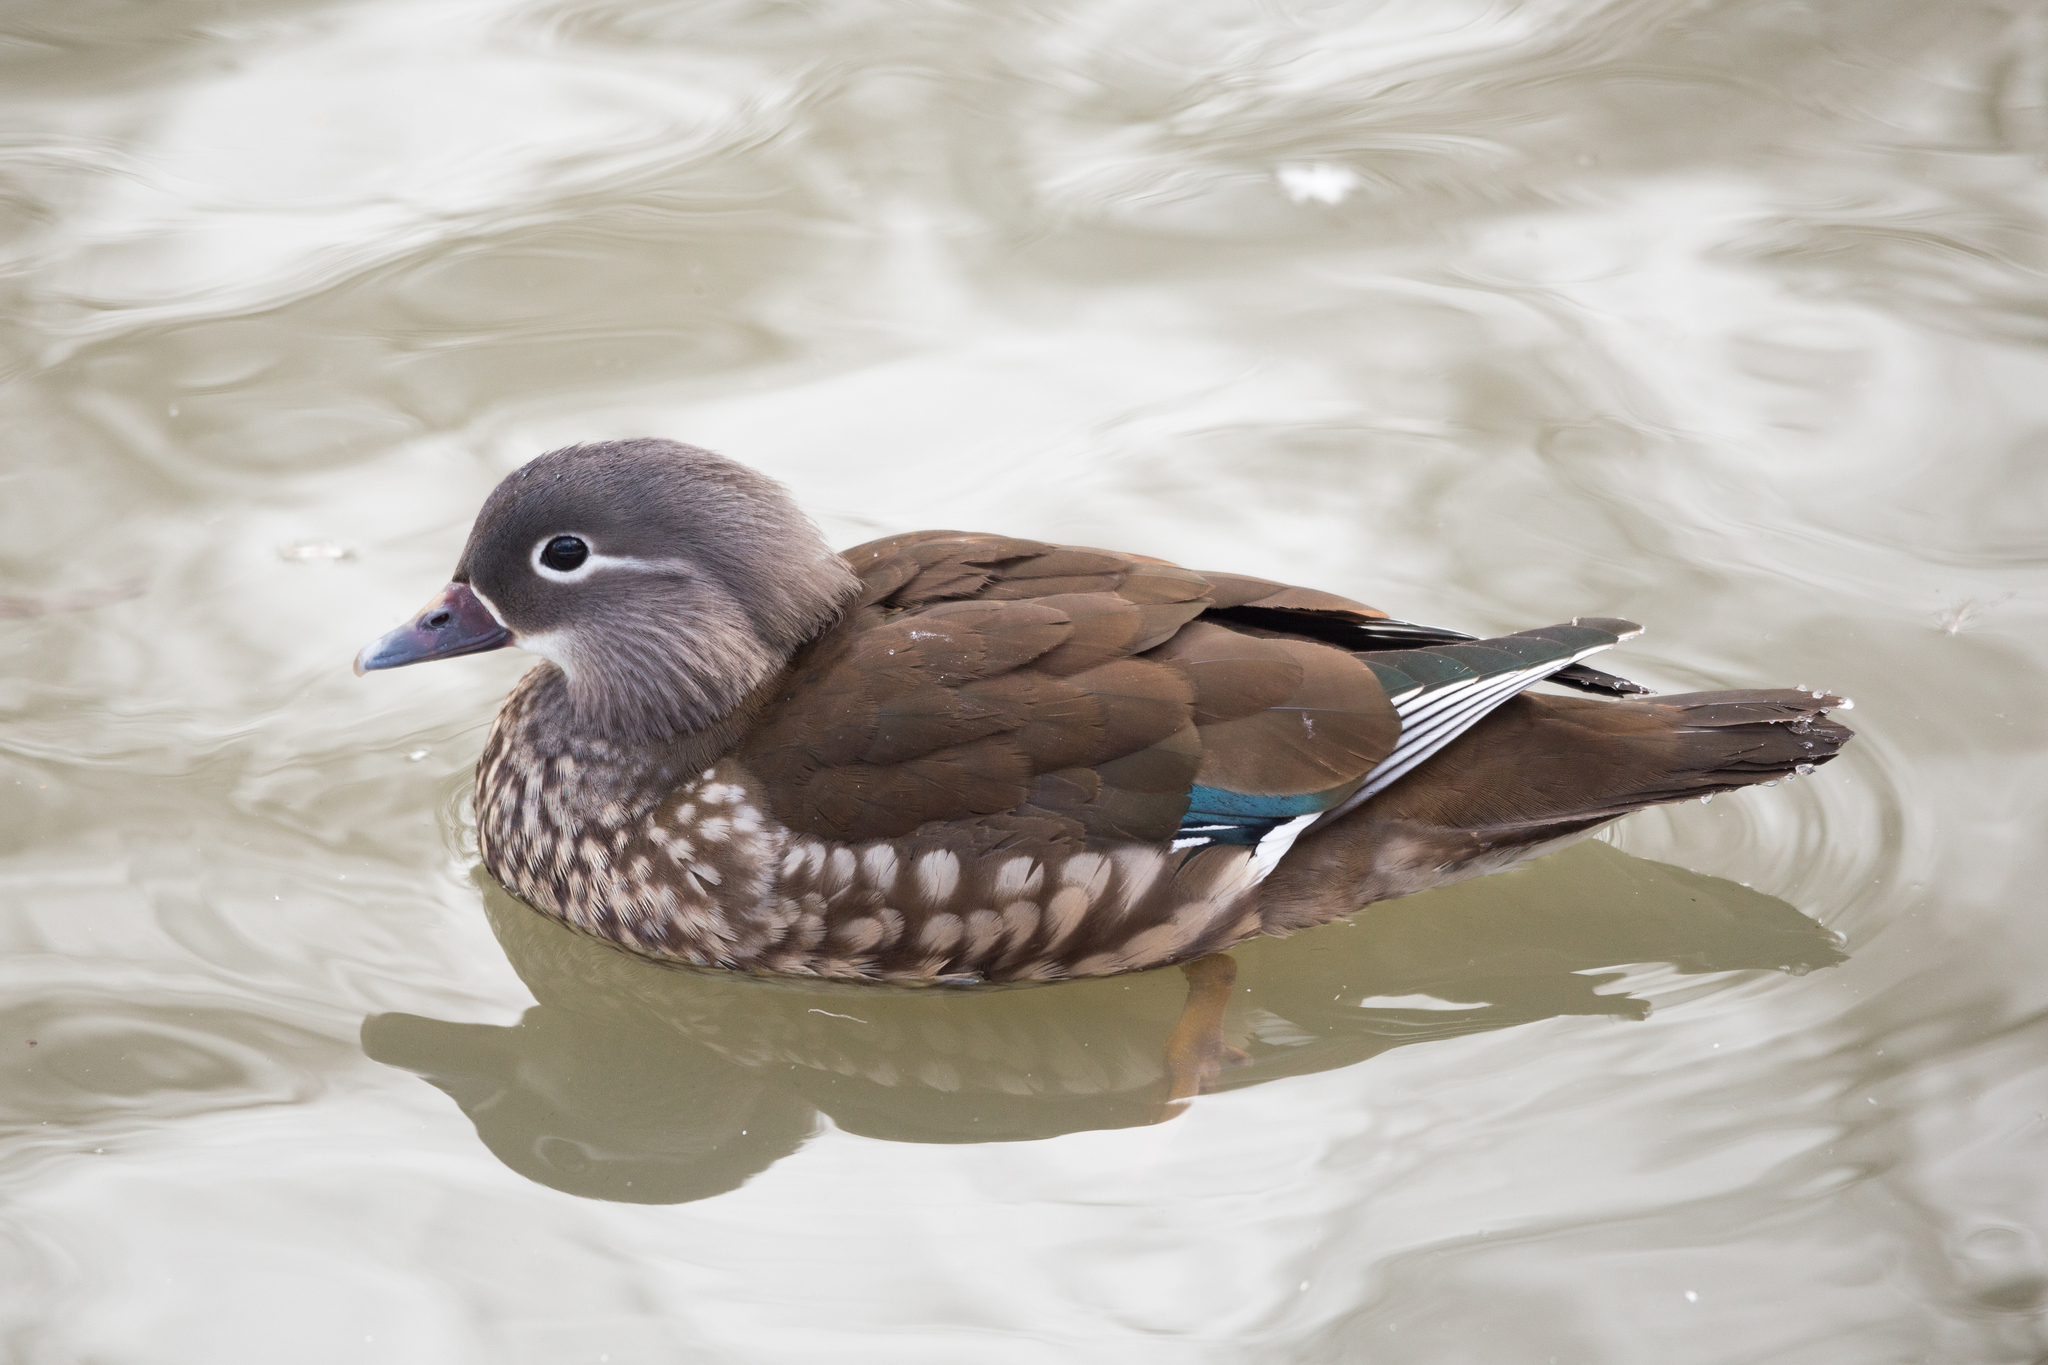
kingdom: Animalia
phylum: Chordata
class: Aves
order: Anseriformes
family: Anatidae
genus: Aix
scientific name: Aix galericulata
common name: Mandarin duck
